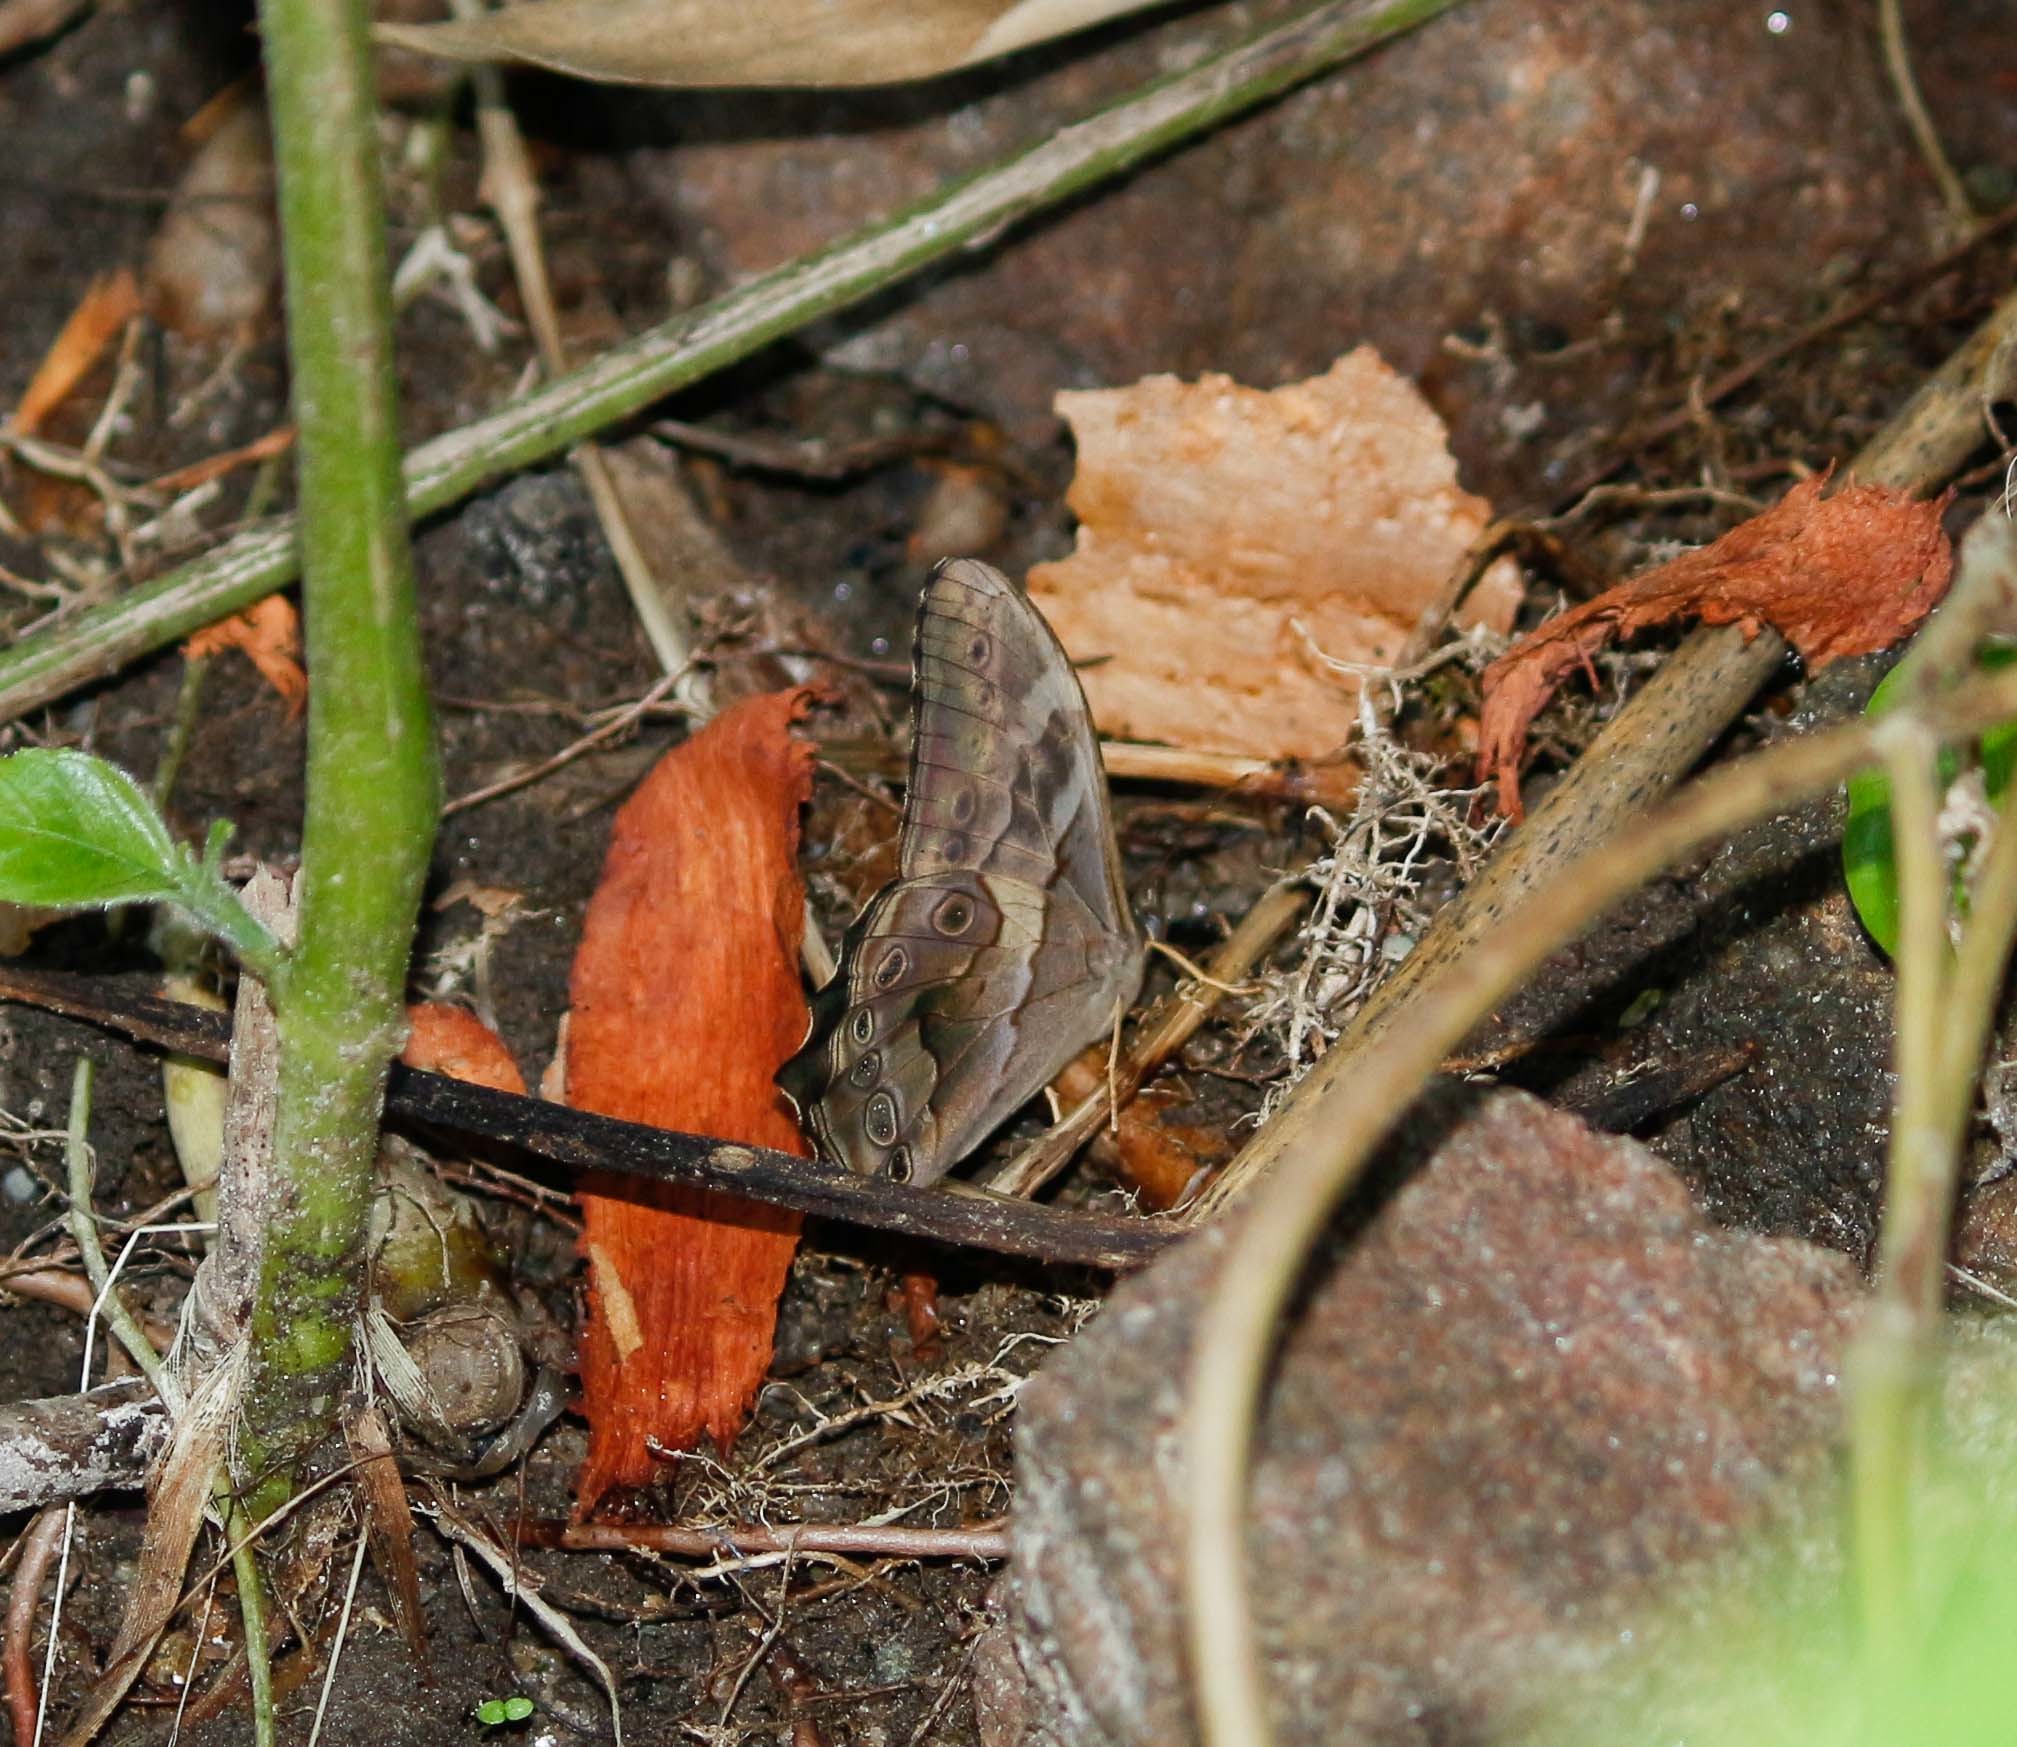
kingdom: Animalia
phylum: Arthropoda
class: Insecta
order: Lepidoptera
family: Nymphalidae
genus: Lethe
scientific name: Lethe chandica
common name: Angled red forester
